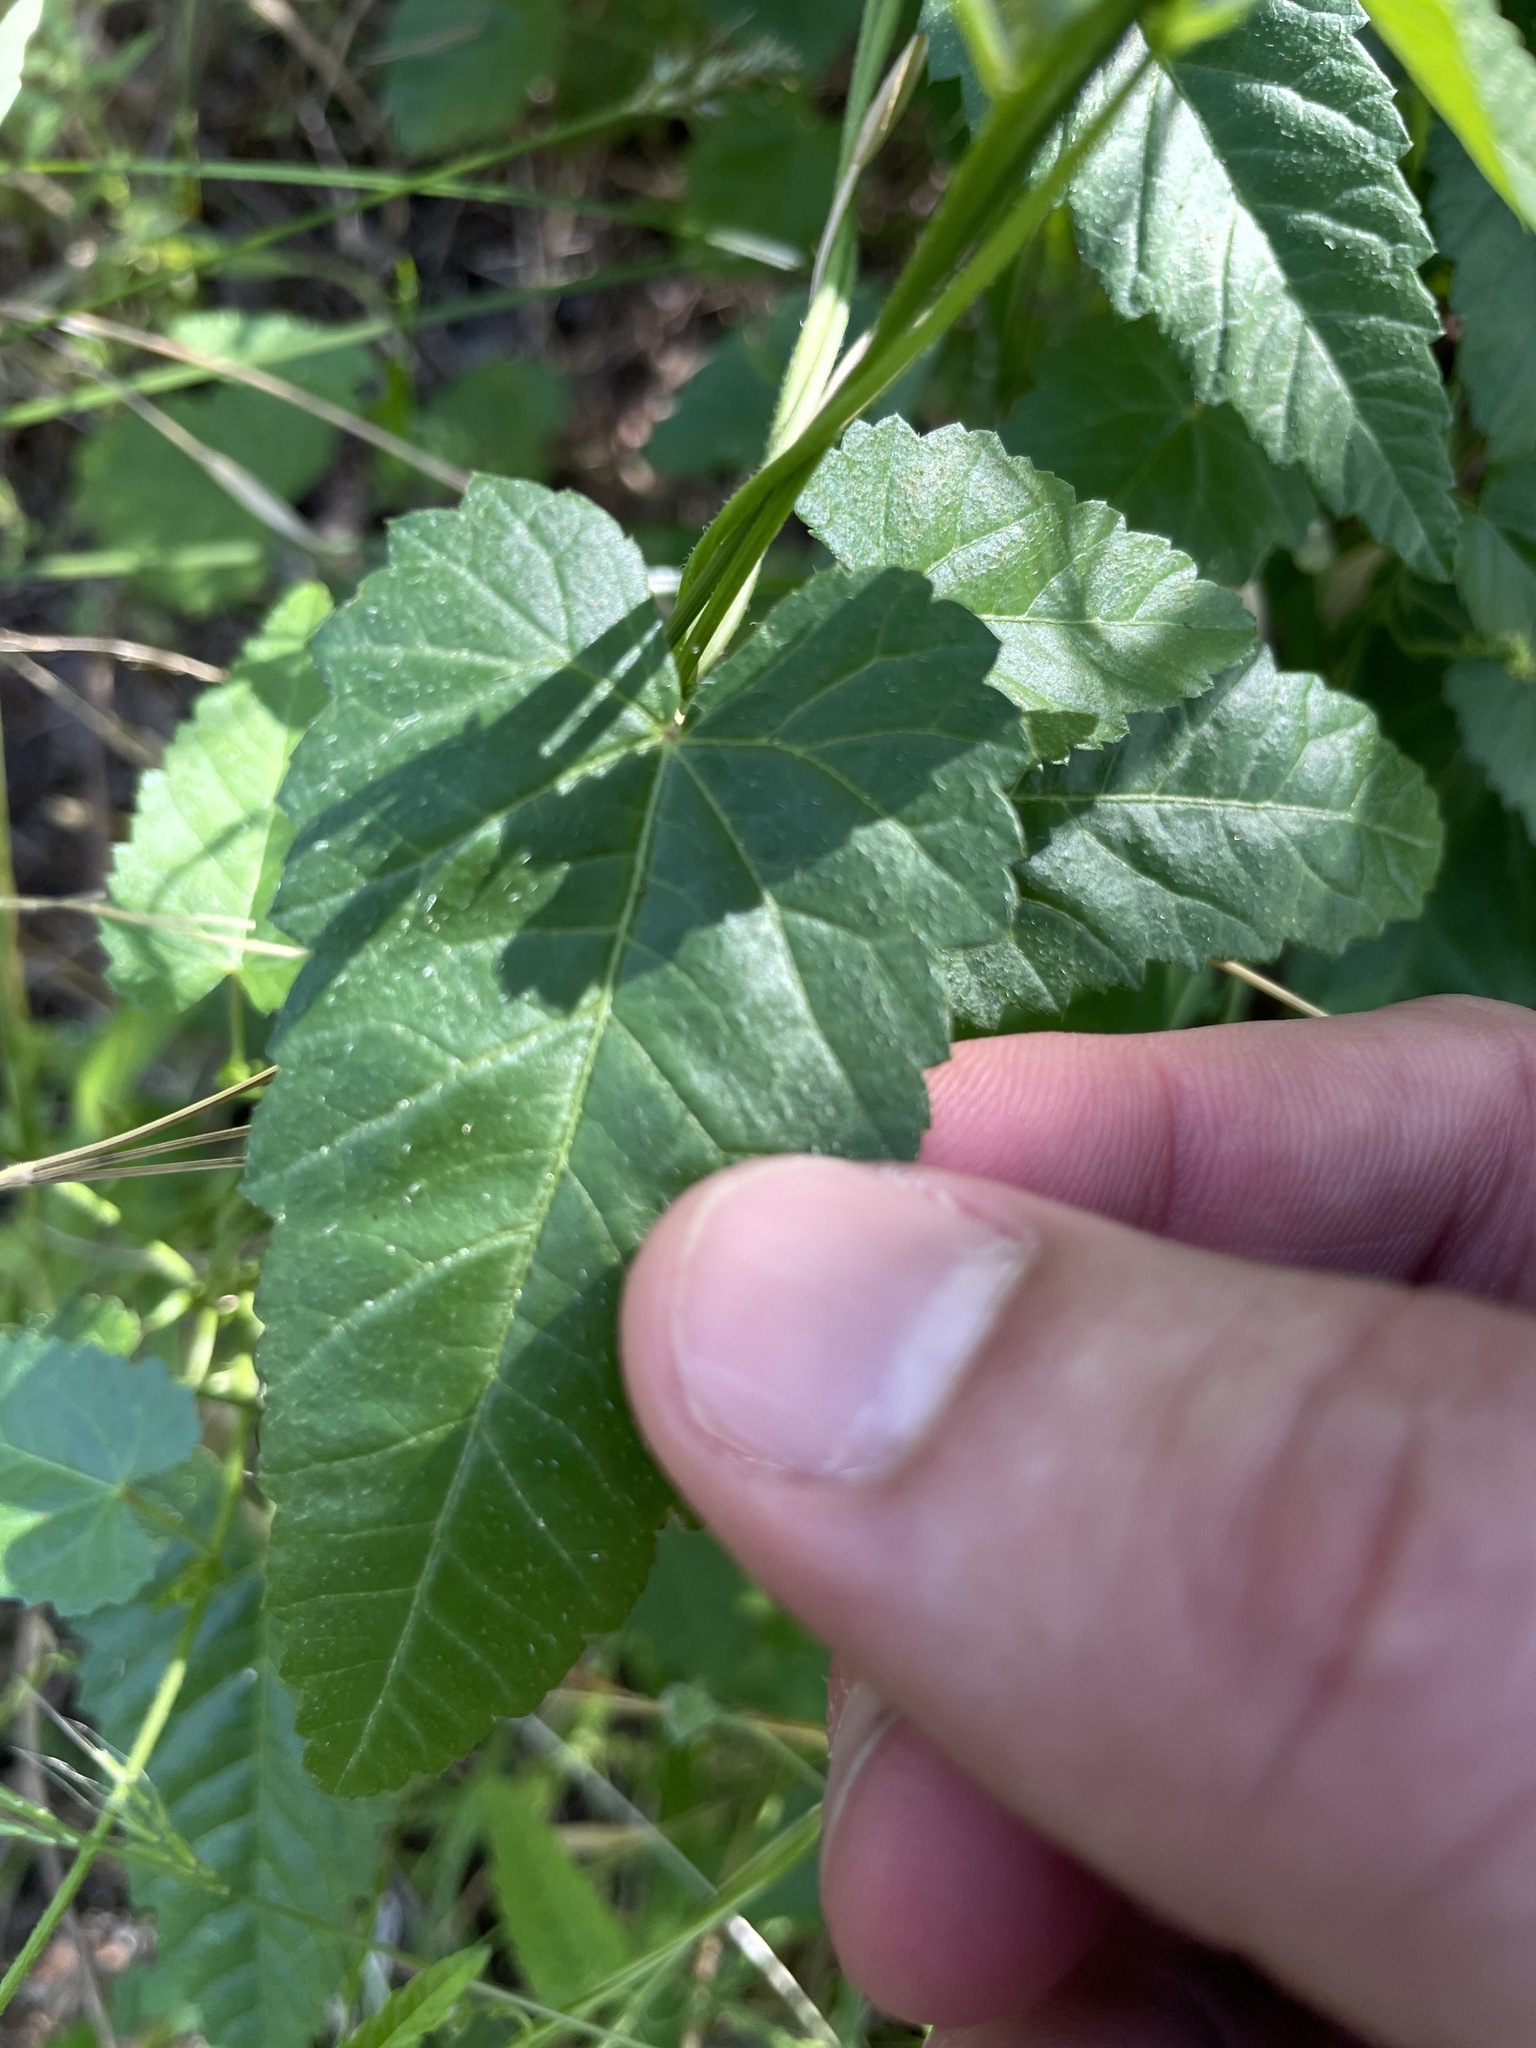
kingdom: Plantae
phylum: Tracheophyta
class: Magnoliopsida
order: Malpighiales
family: Euphorbiaceae
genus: Tragia
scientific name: Tragia urticifolia
